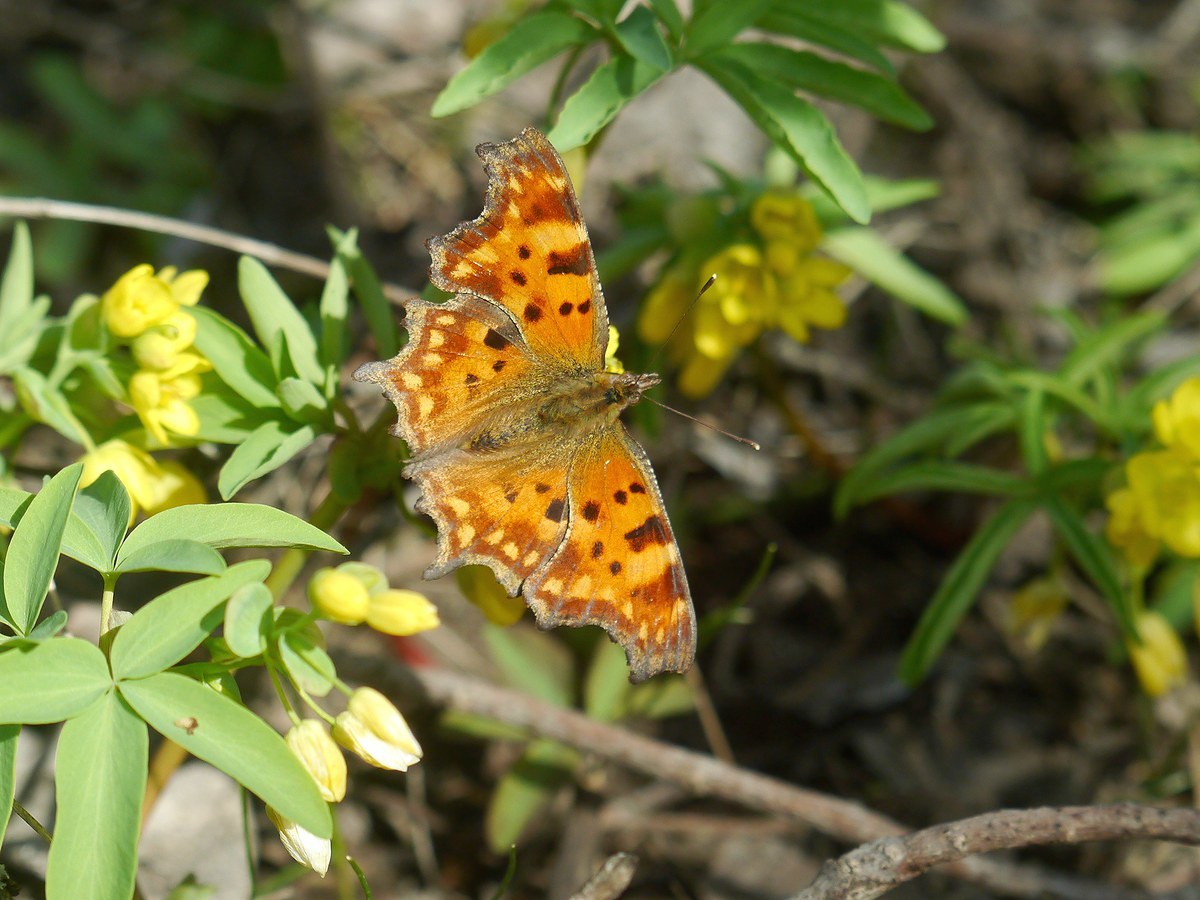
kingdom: Animalia
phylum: Arthropoda
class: Insecta
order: Lepidoptera
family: Nymphalidae
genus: Polygonia
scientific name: Polygonia c-album
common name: Comma
